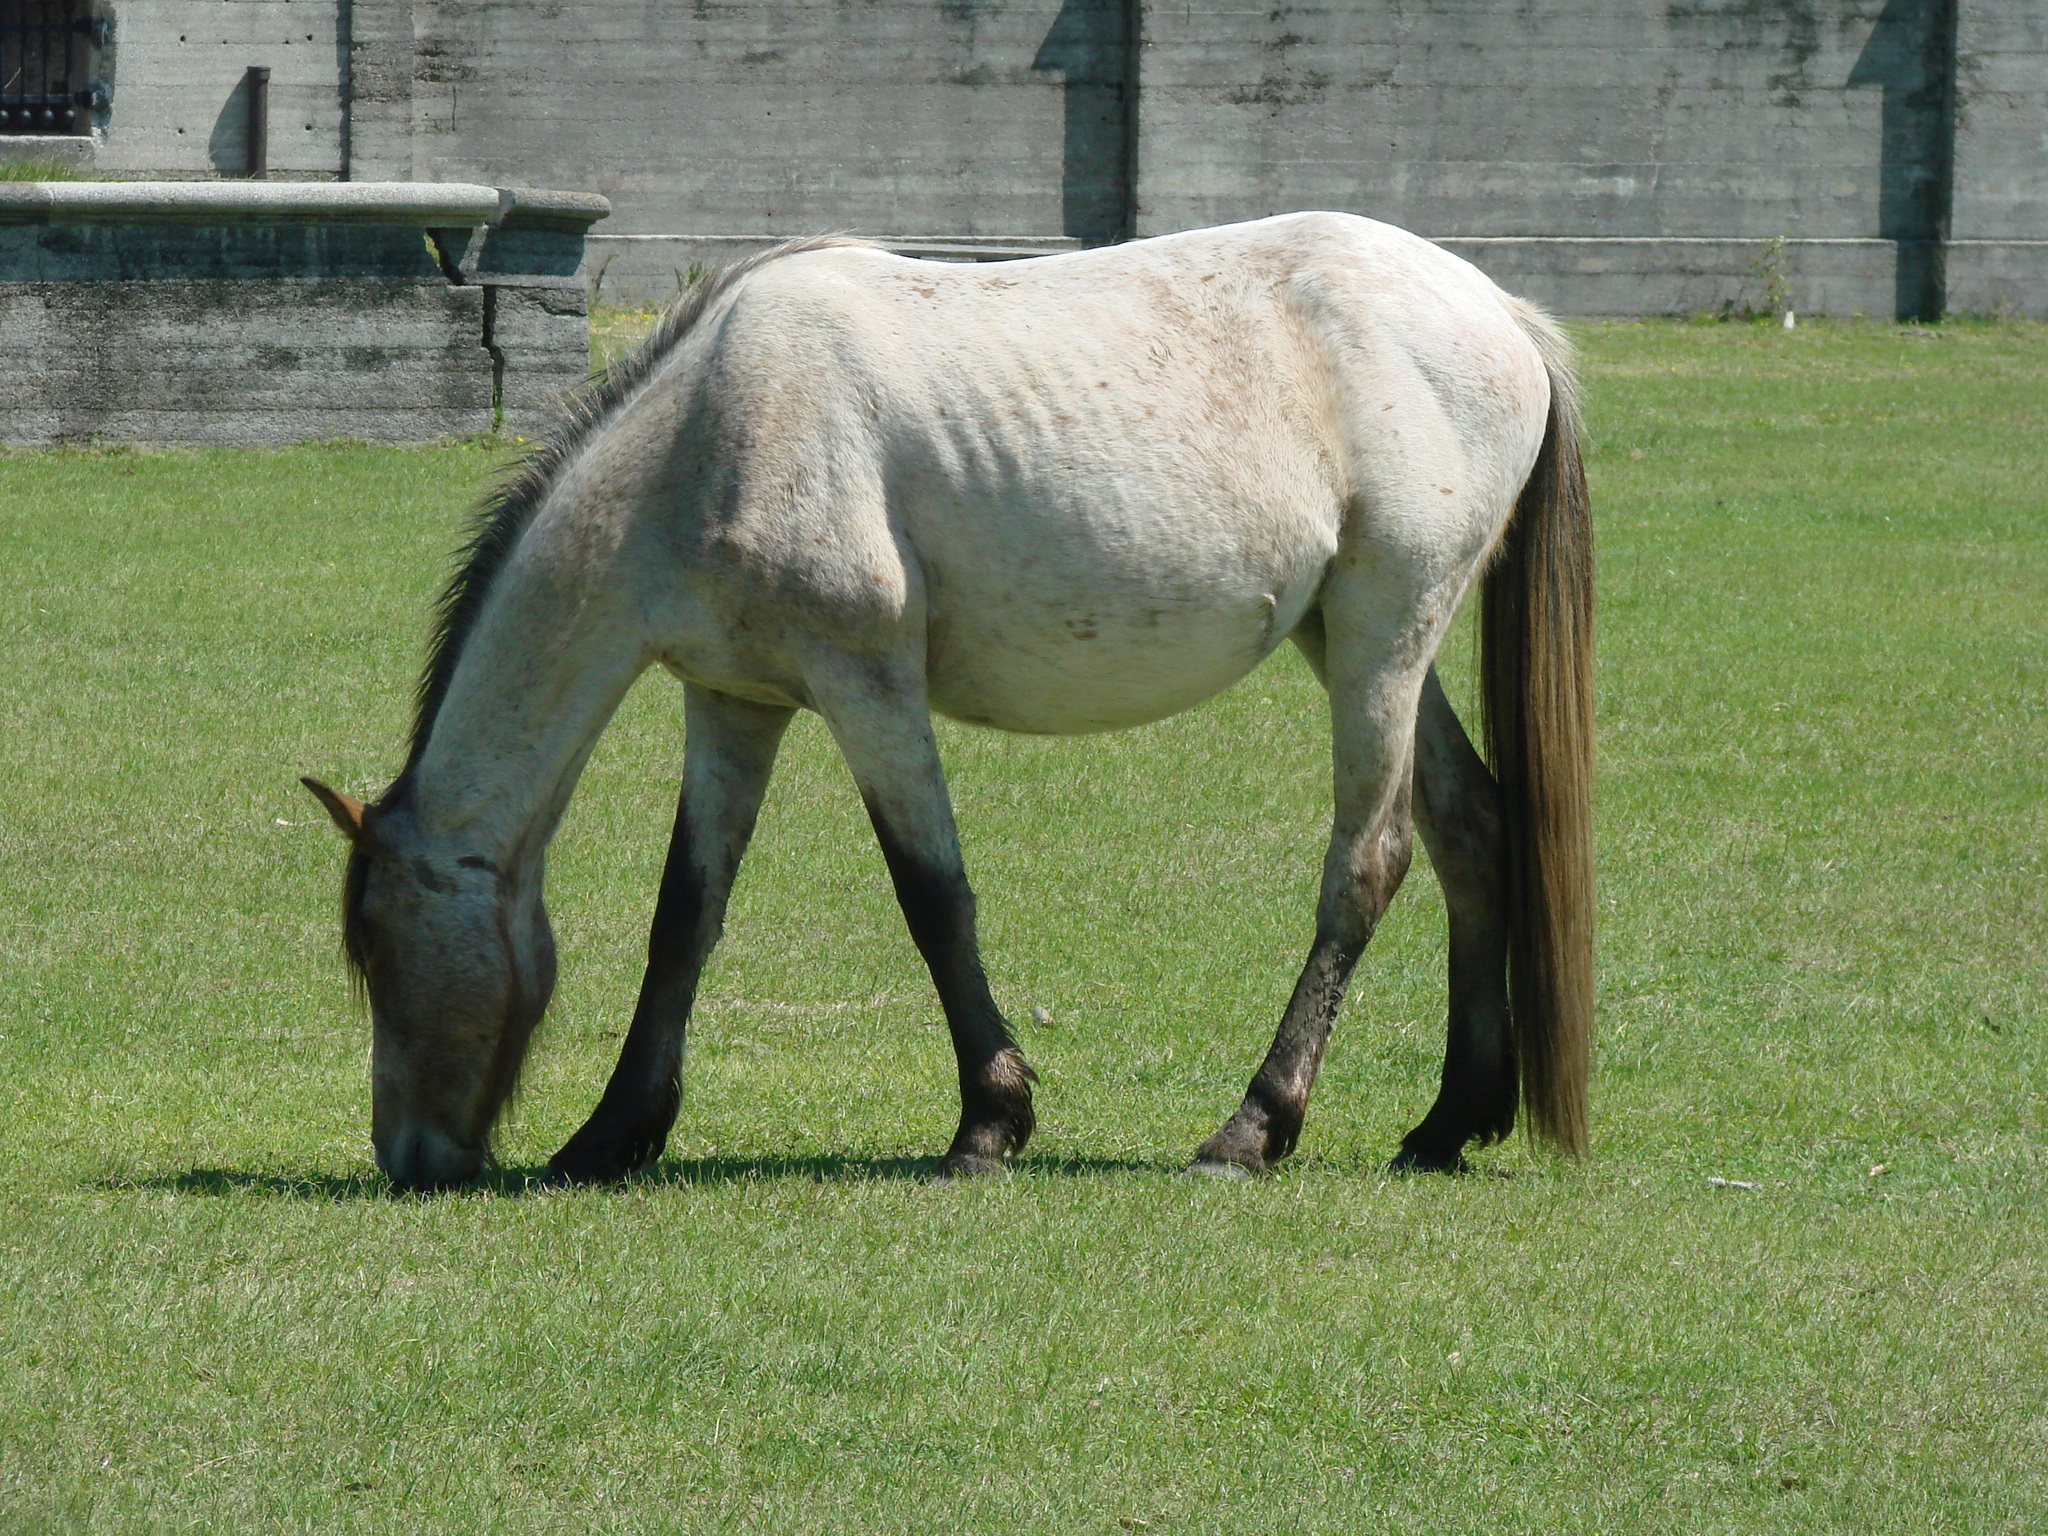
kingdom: Animalia
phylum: Chordata
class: Mammalia
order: Perissodactyla
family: Equidae
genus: Equus
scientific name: Equus caballus
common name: Horse
